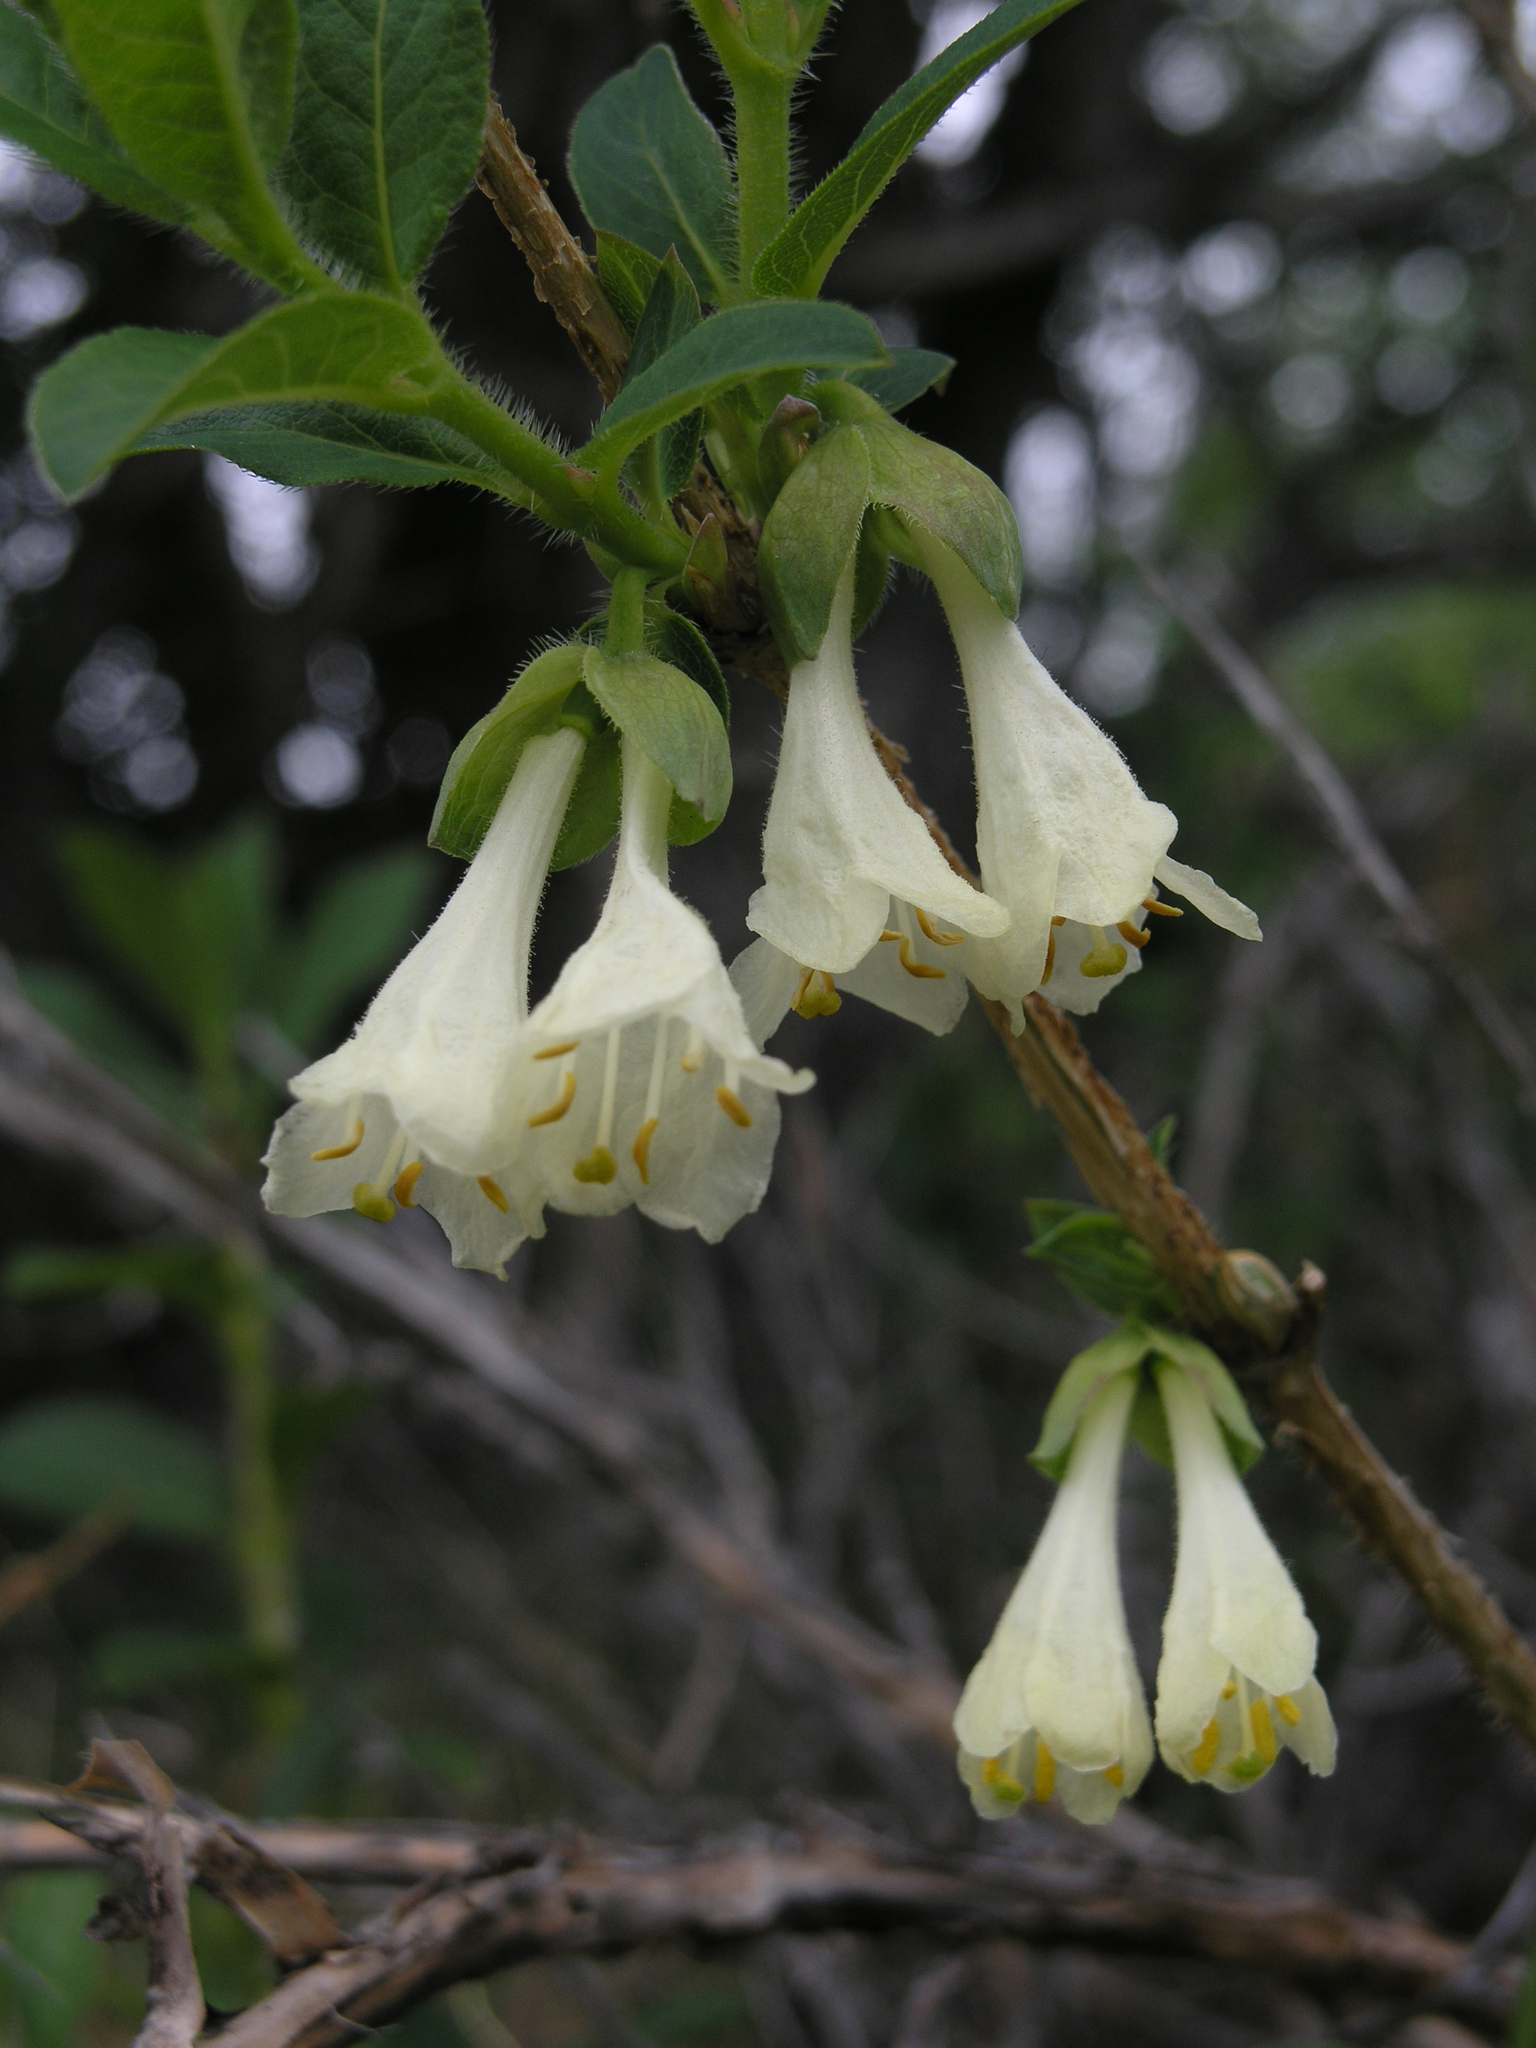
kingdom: Plantae
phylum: Tracheophyta
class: Magnoliopsida
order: Dipsacales
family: Caprifoliaceae
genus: Lonicera
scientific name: Lonicera hispida
